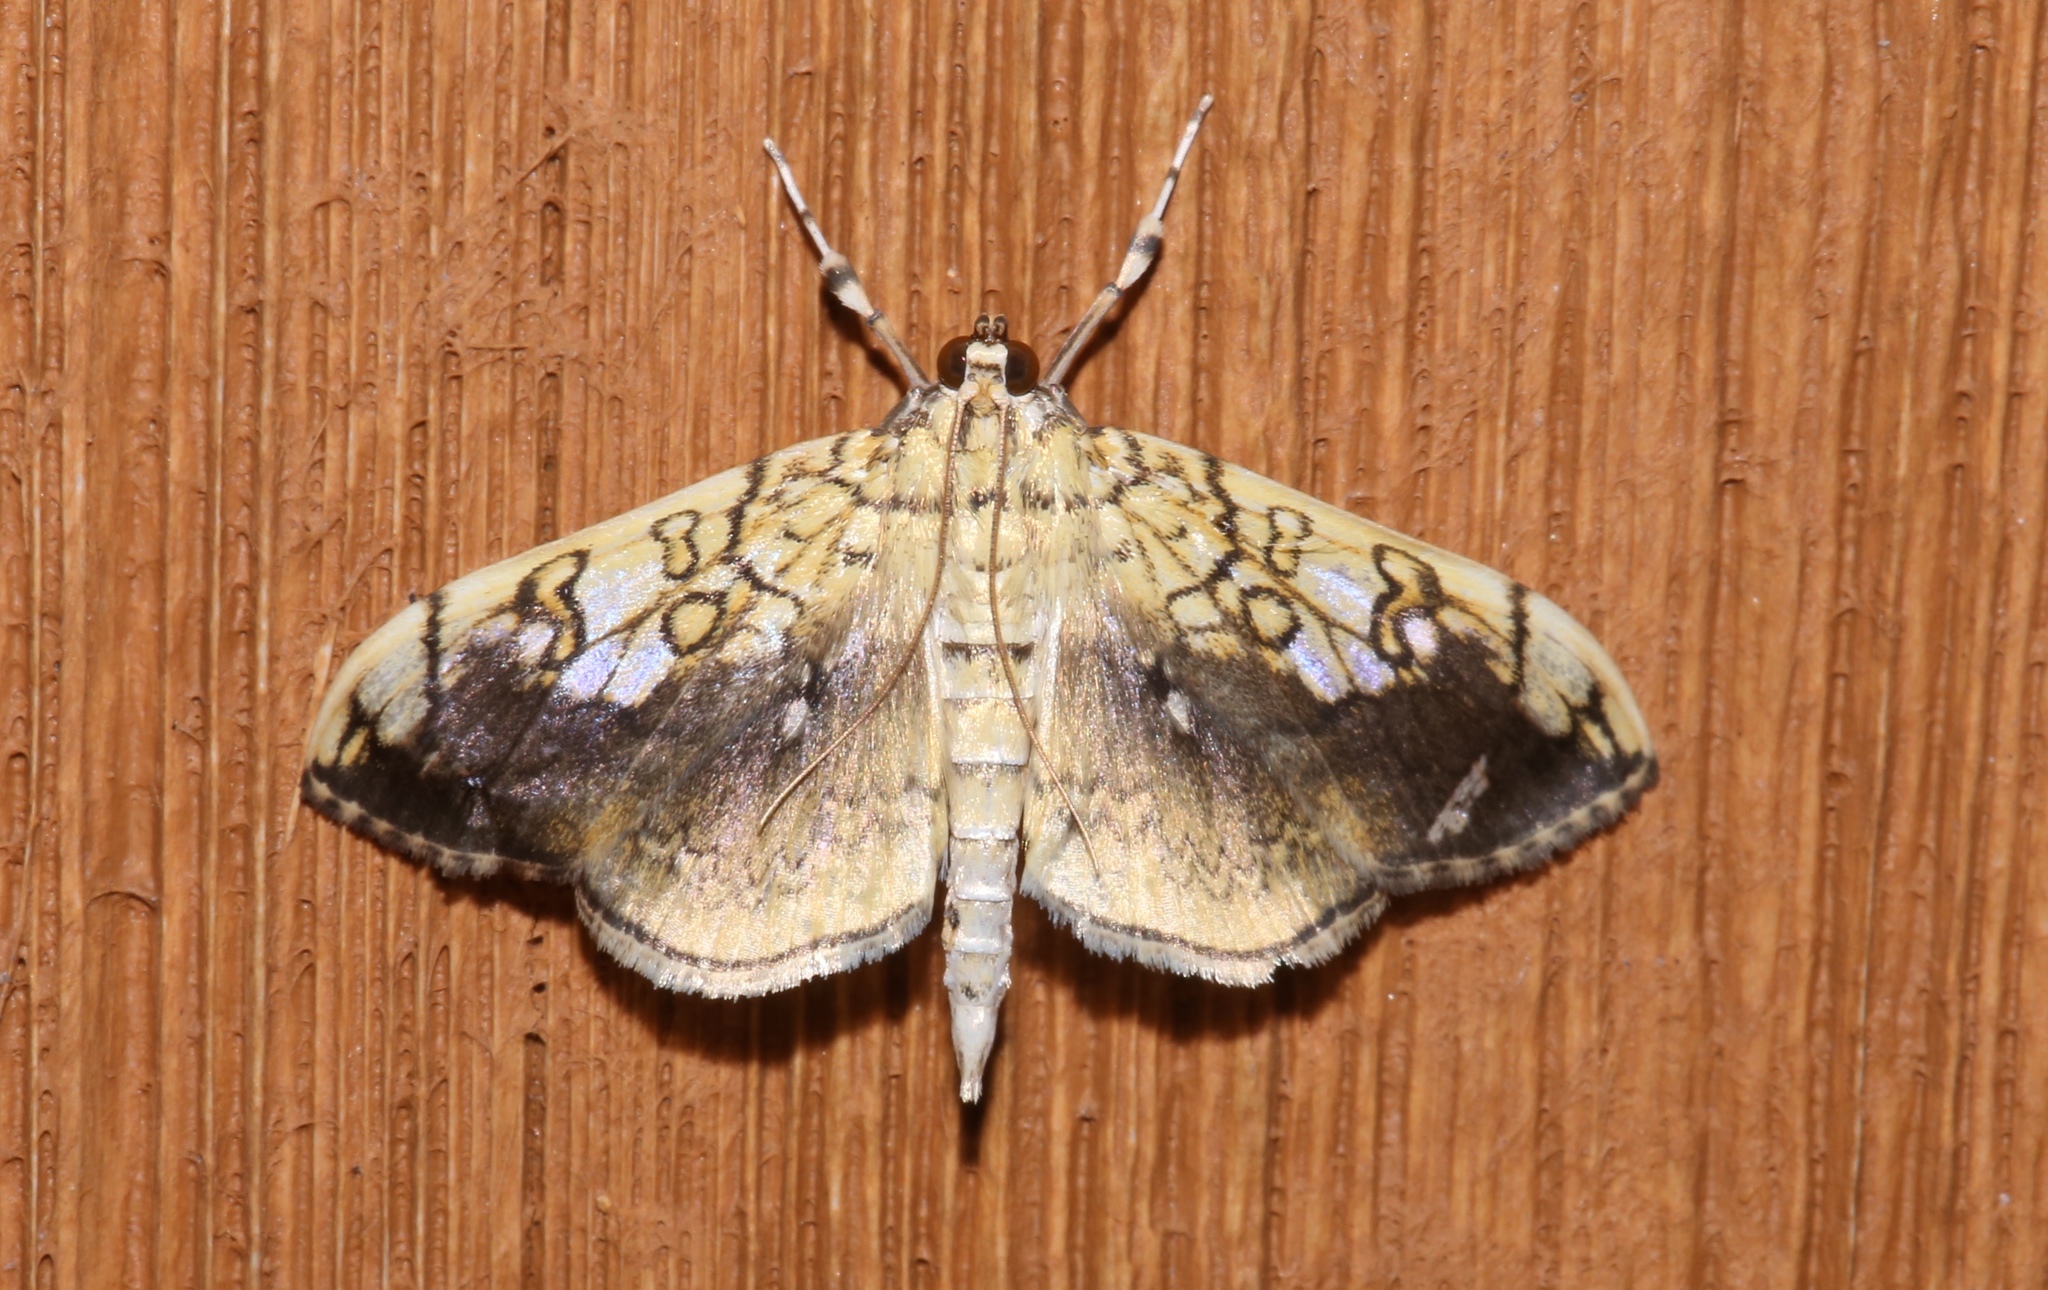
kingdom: Animalia
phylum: Arthropoda
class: Insecta
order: Lepidoptera
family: Crambidae
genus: Pantographa
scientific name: Pantographa limata
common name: Basswood leafroller moth
